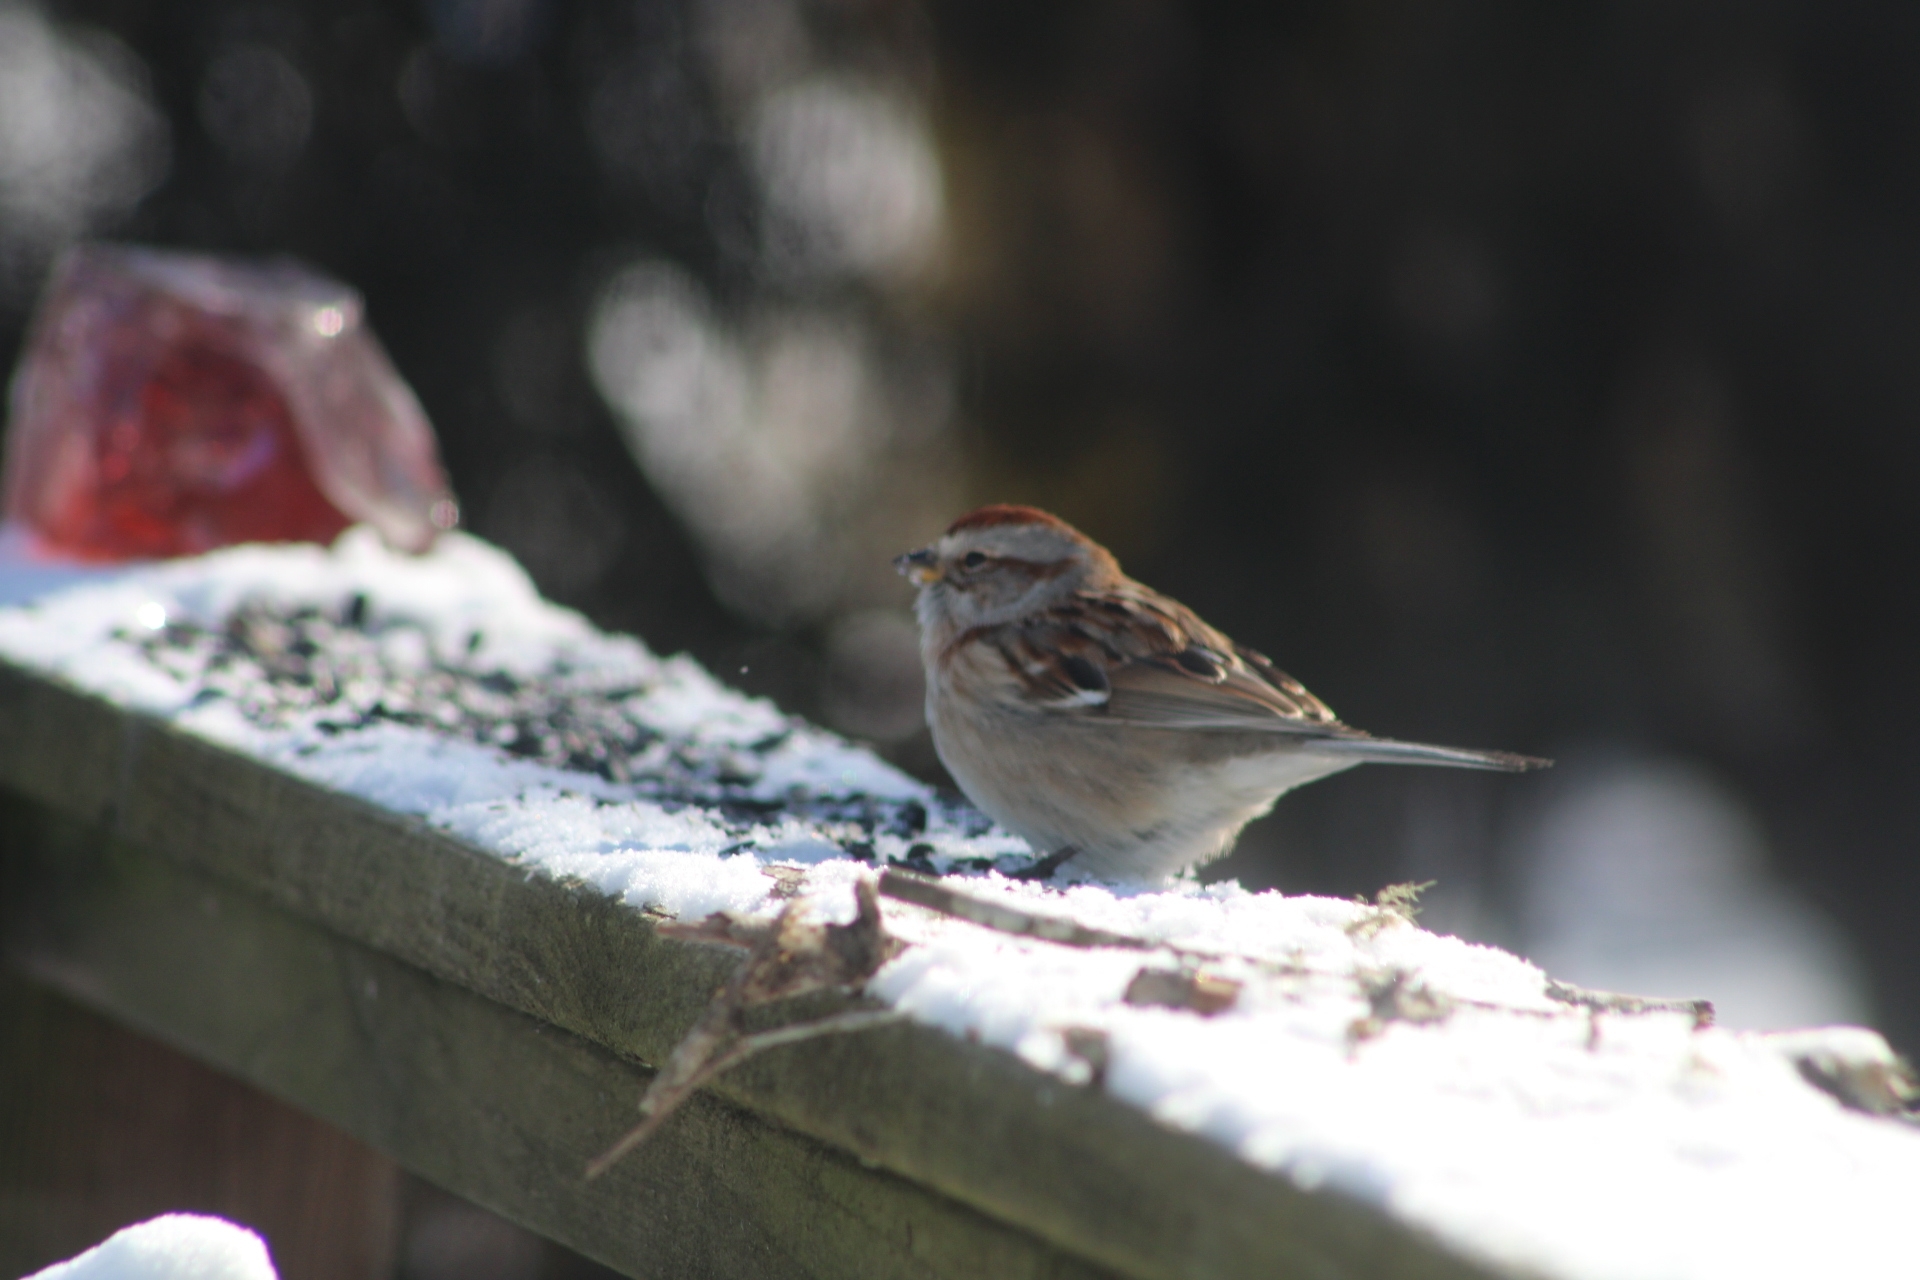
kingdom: Animalia
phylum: Chordata
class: Aves
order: Passeriformes
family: Passerellidae
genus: Spizelloides
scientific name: Spizelloides arborea
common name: American tree sparrow
